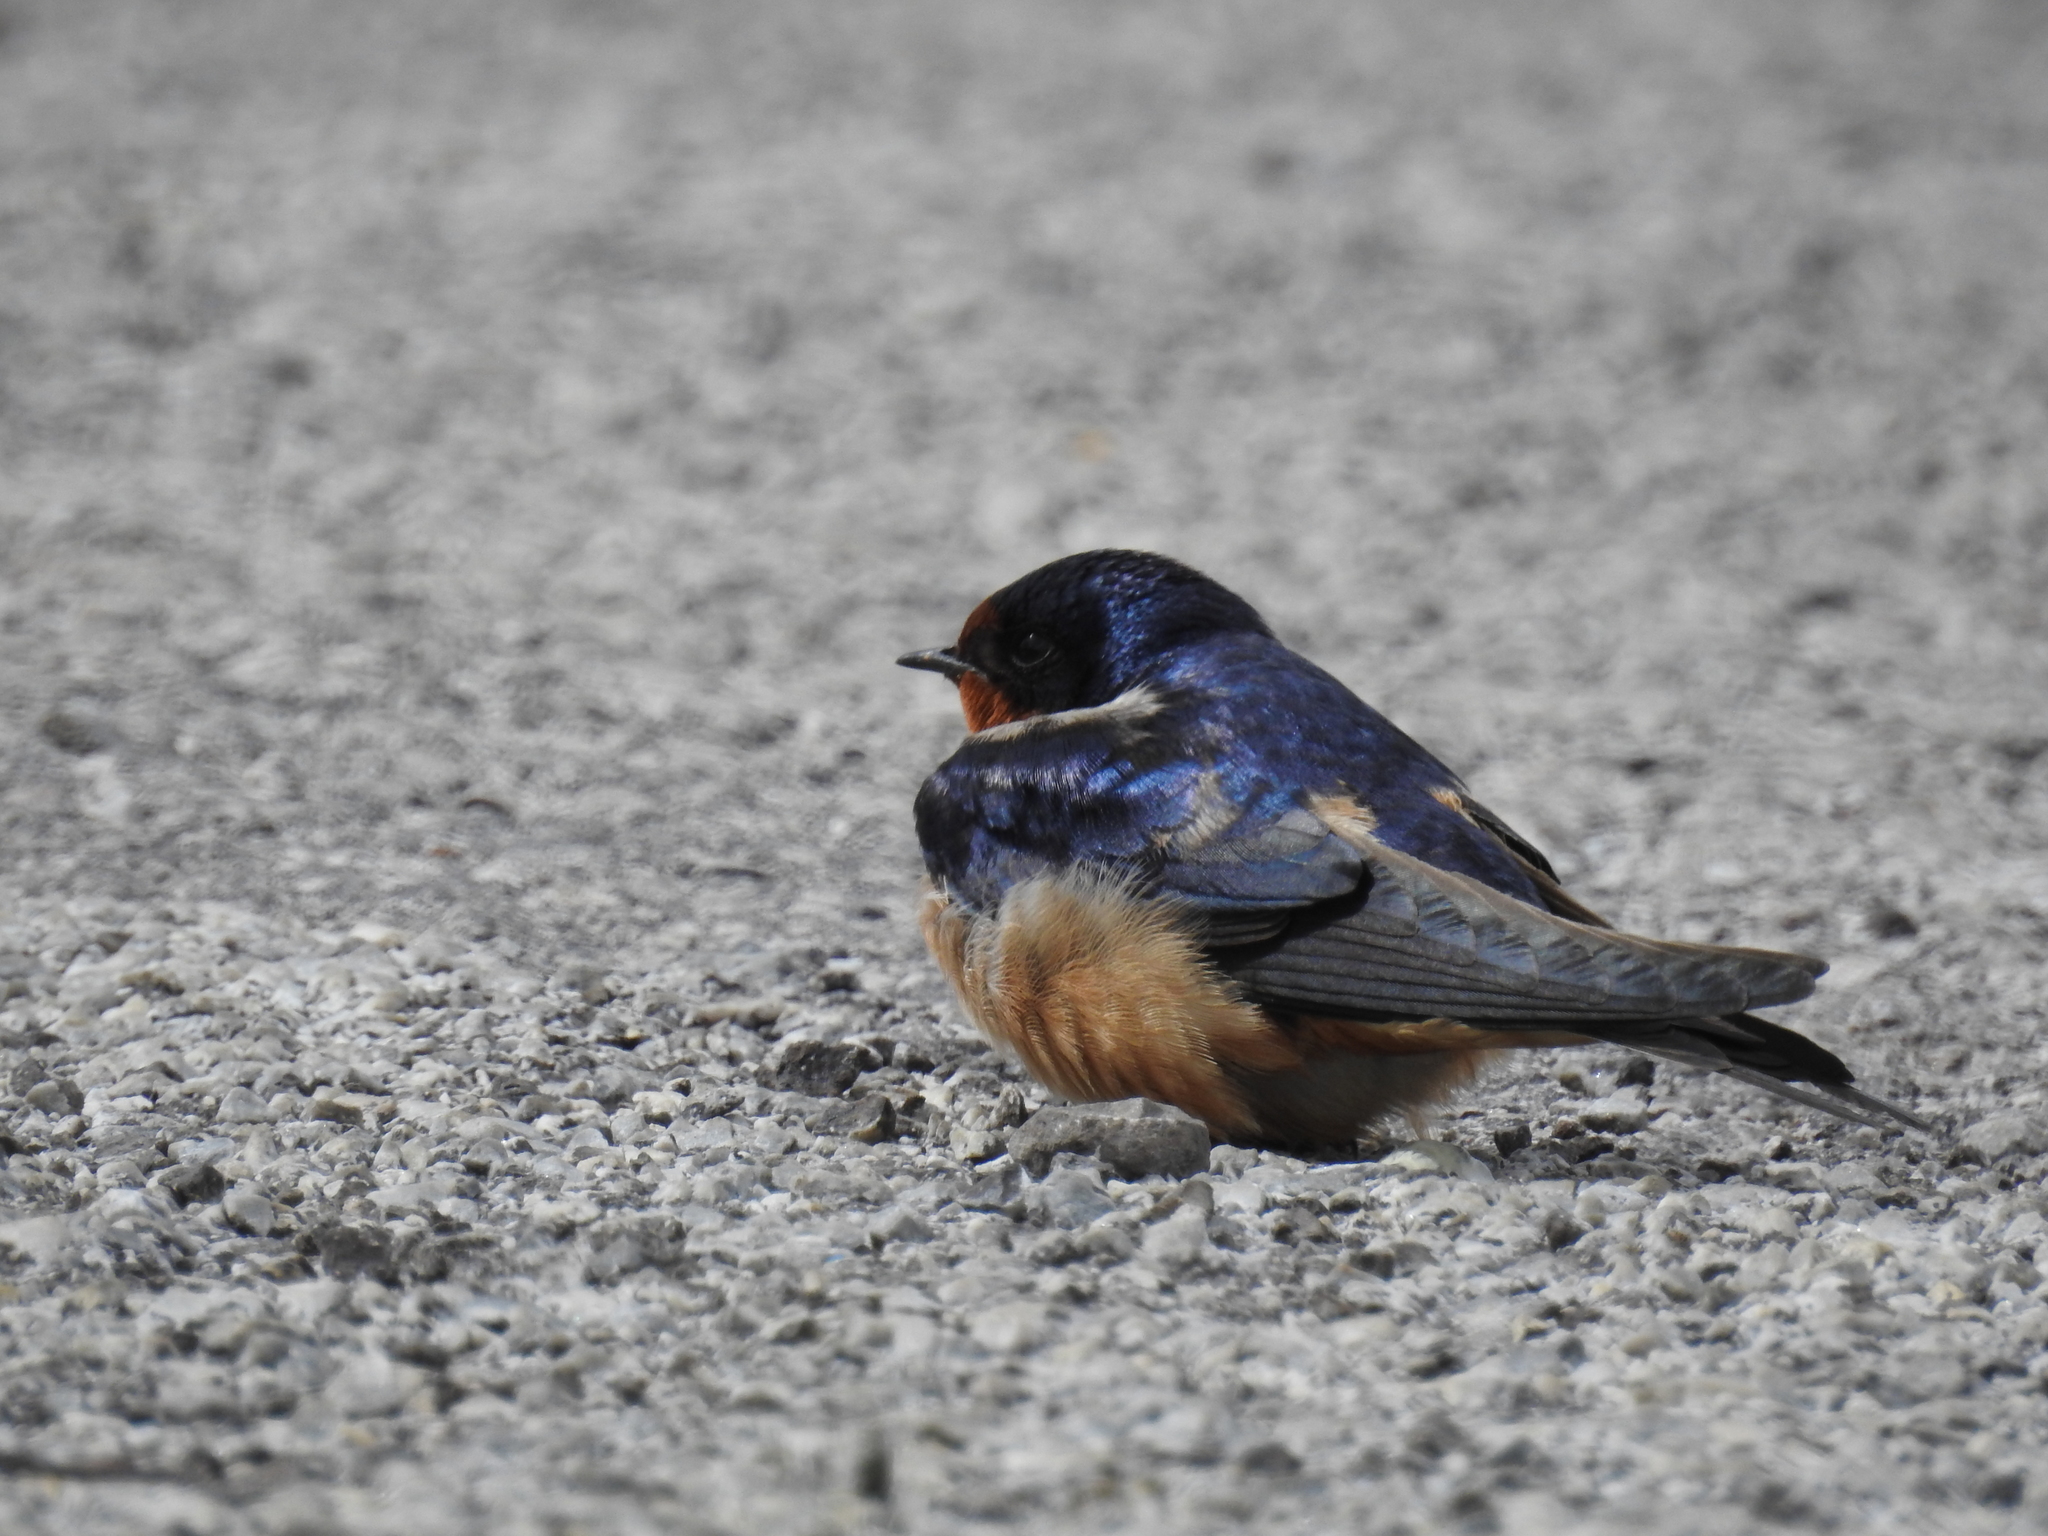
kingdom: Animalia
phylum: Chordata
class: Aves
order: Passeriformes
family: Hirundinidae
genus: Hirundo
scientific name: Hirundo rustica
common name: Barn swallow
